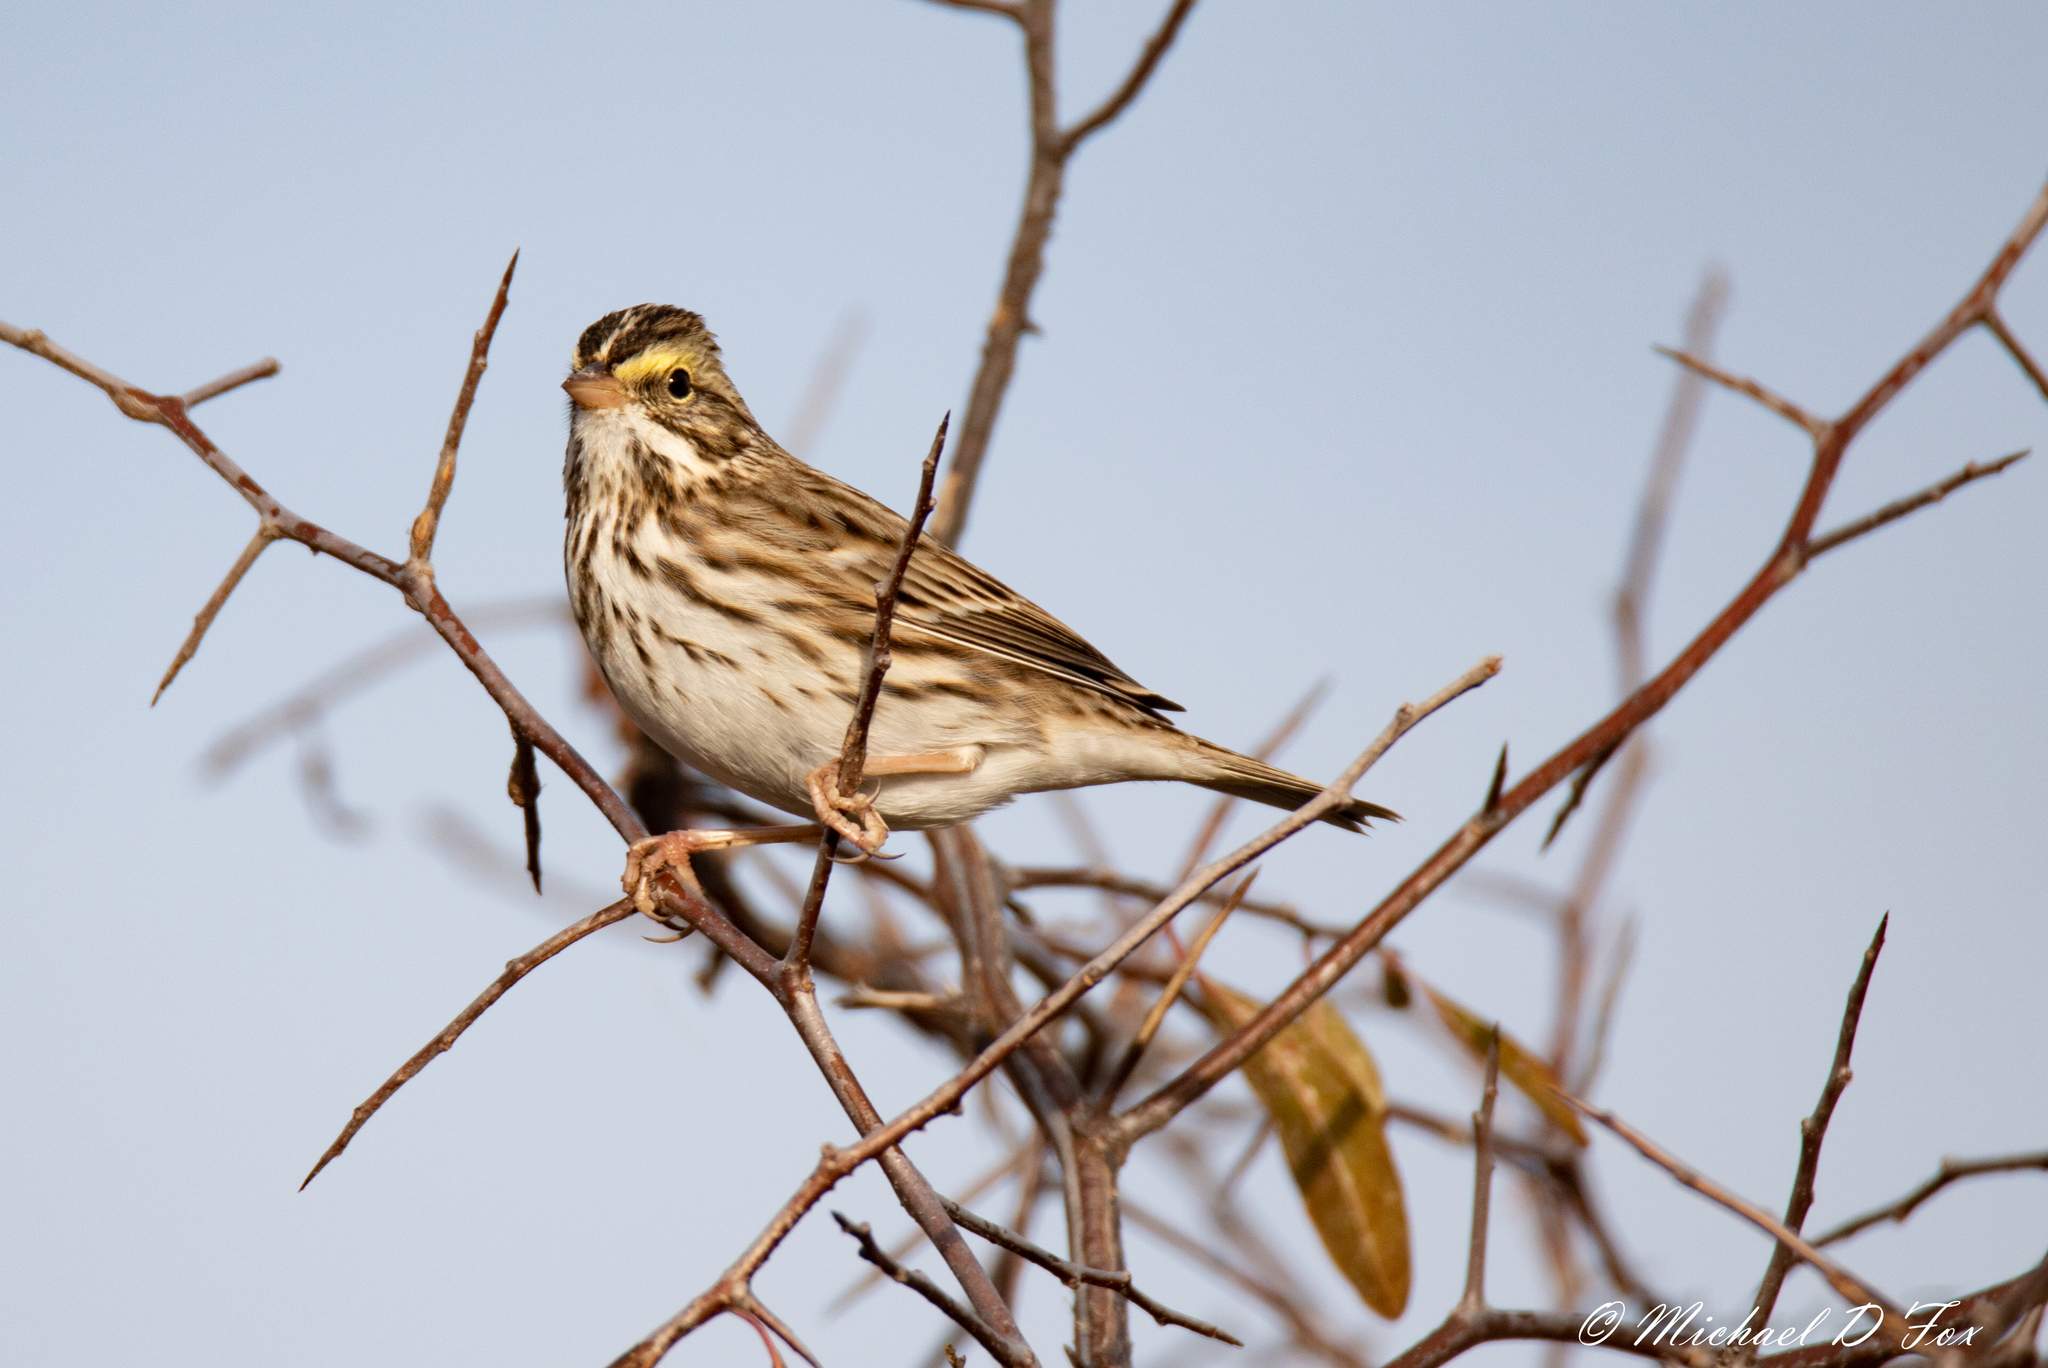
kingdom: Animalia
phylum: Chordata
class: Aves
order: Passeriformes
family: Passerellidae
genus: Passerculus
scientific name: Passerculus sandwichensis
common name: Savannah sparrow
